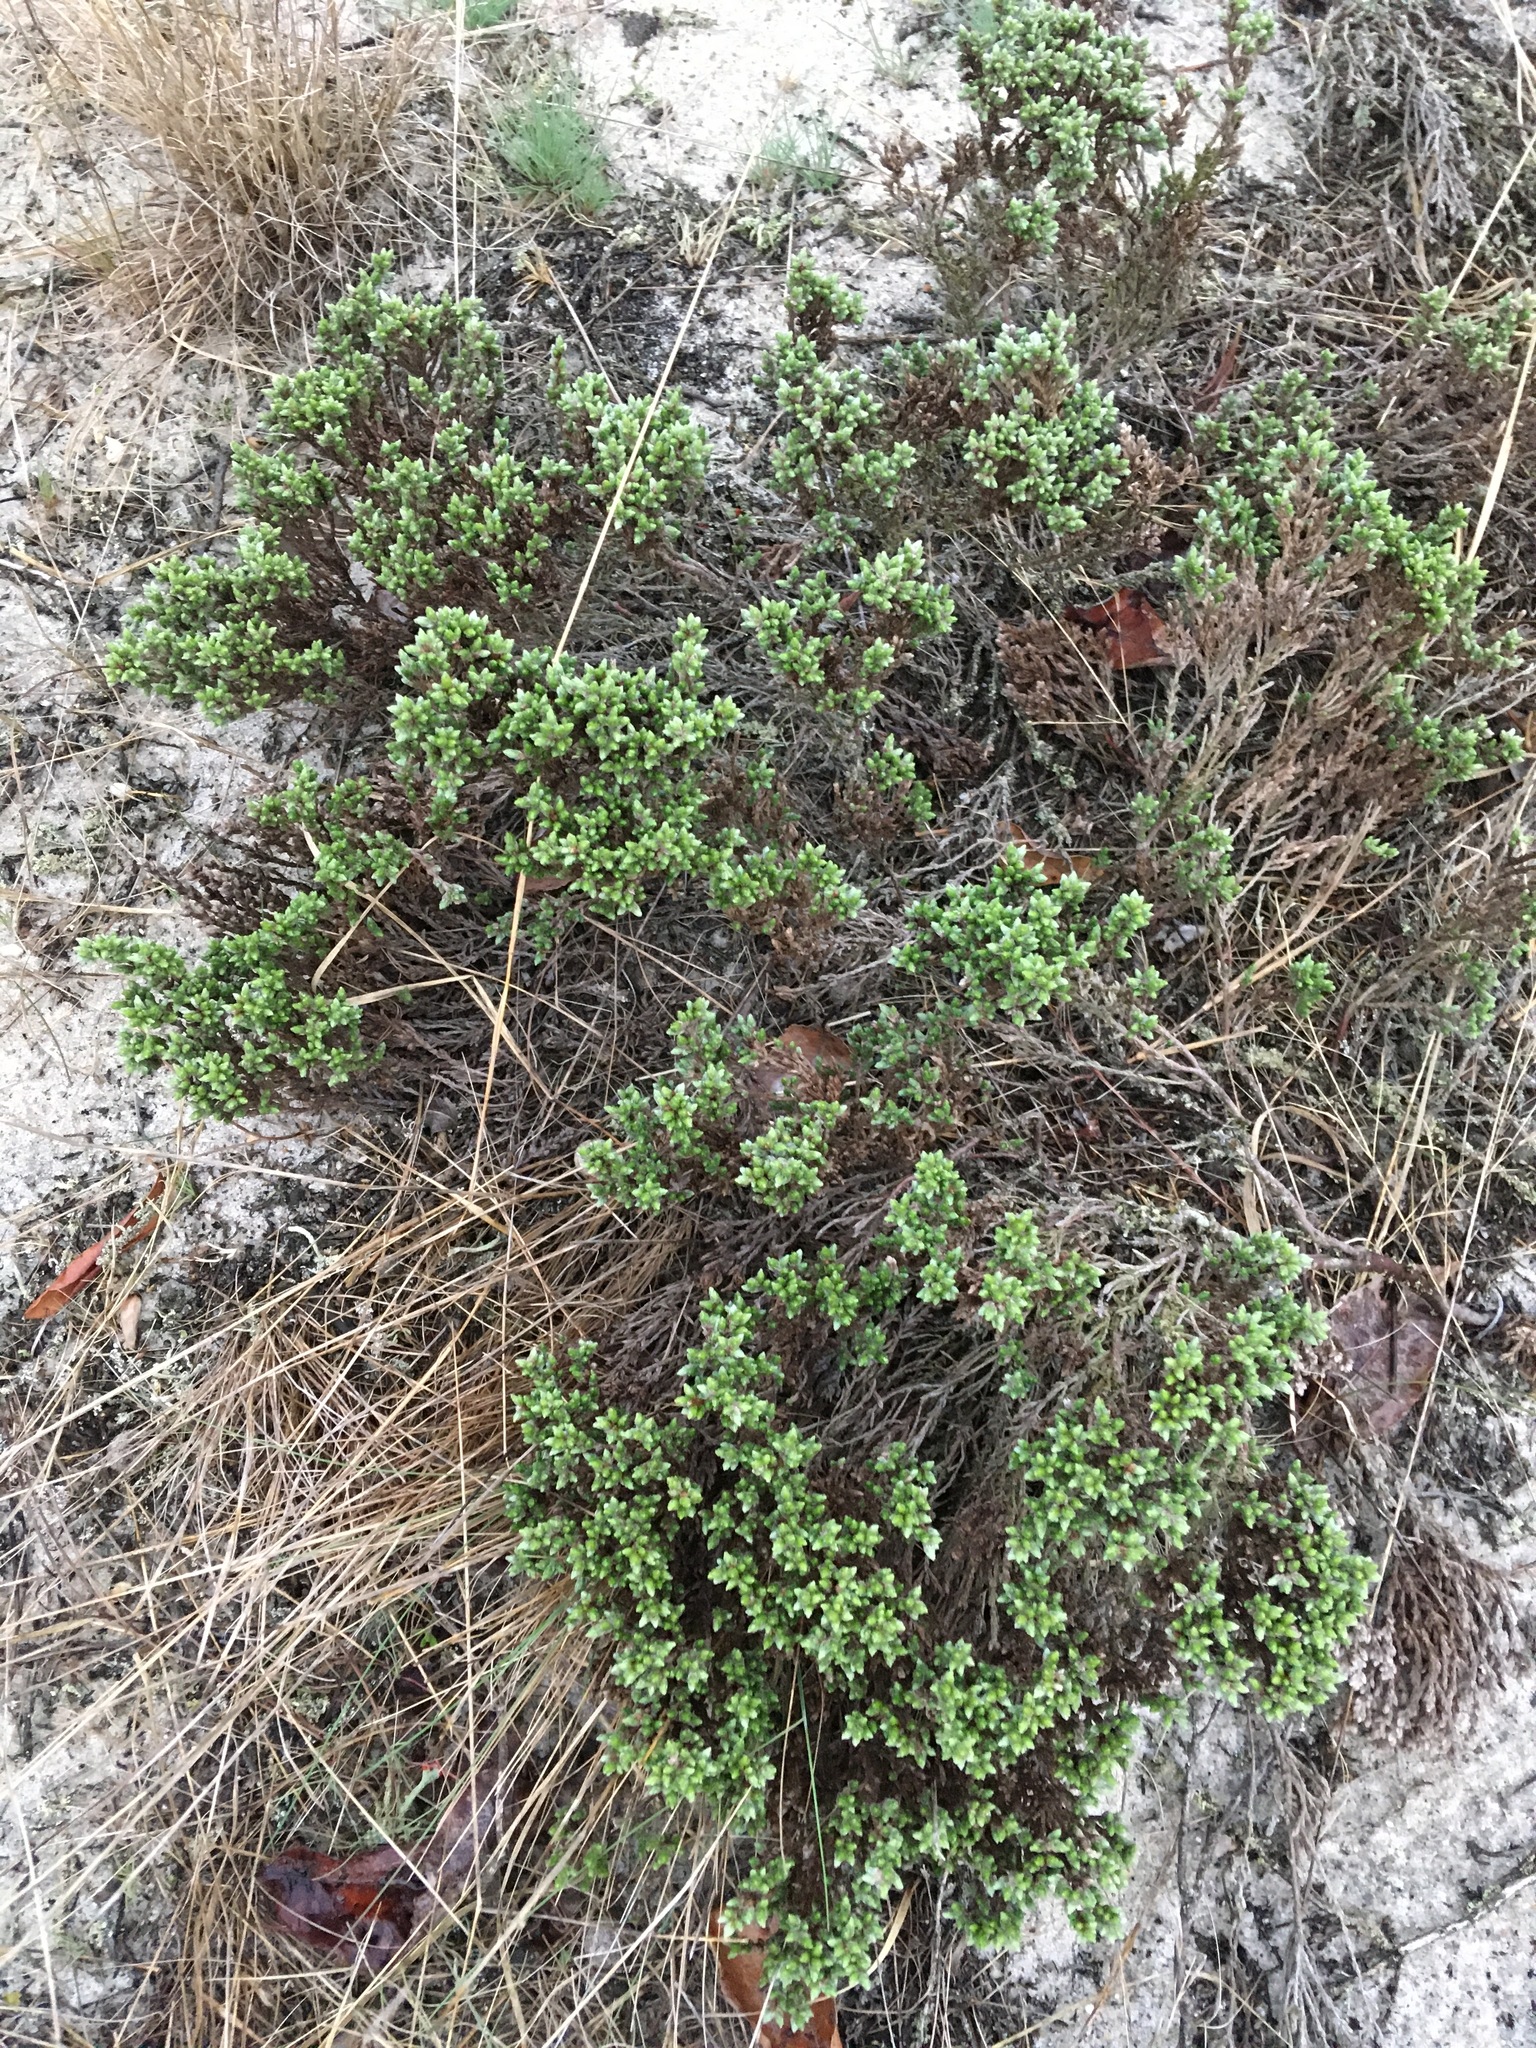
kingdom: Plantae
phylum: Tracheophyta
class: Magnoliopsida
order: Malvales
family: Cistaceae
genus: Hudsonia
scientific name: Hudsonia tomentosa
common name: Beach-heath
